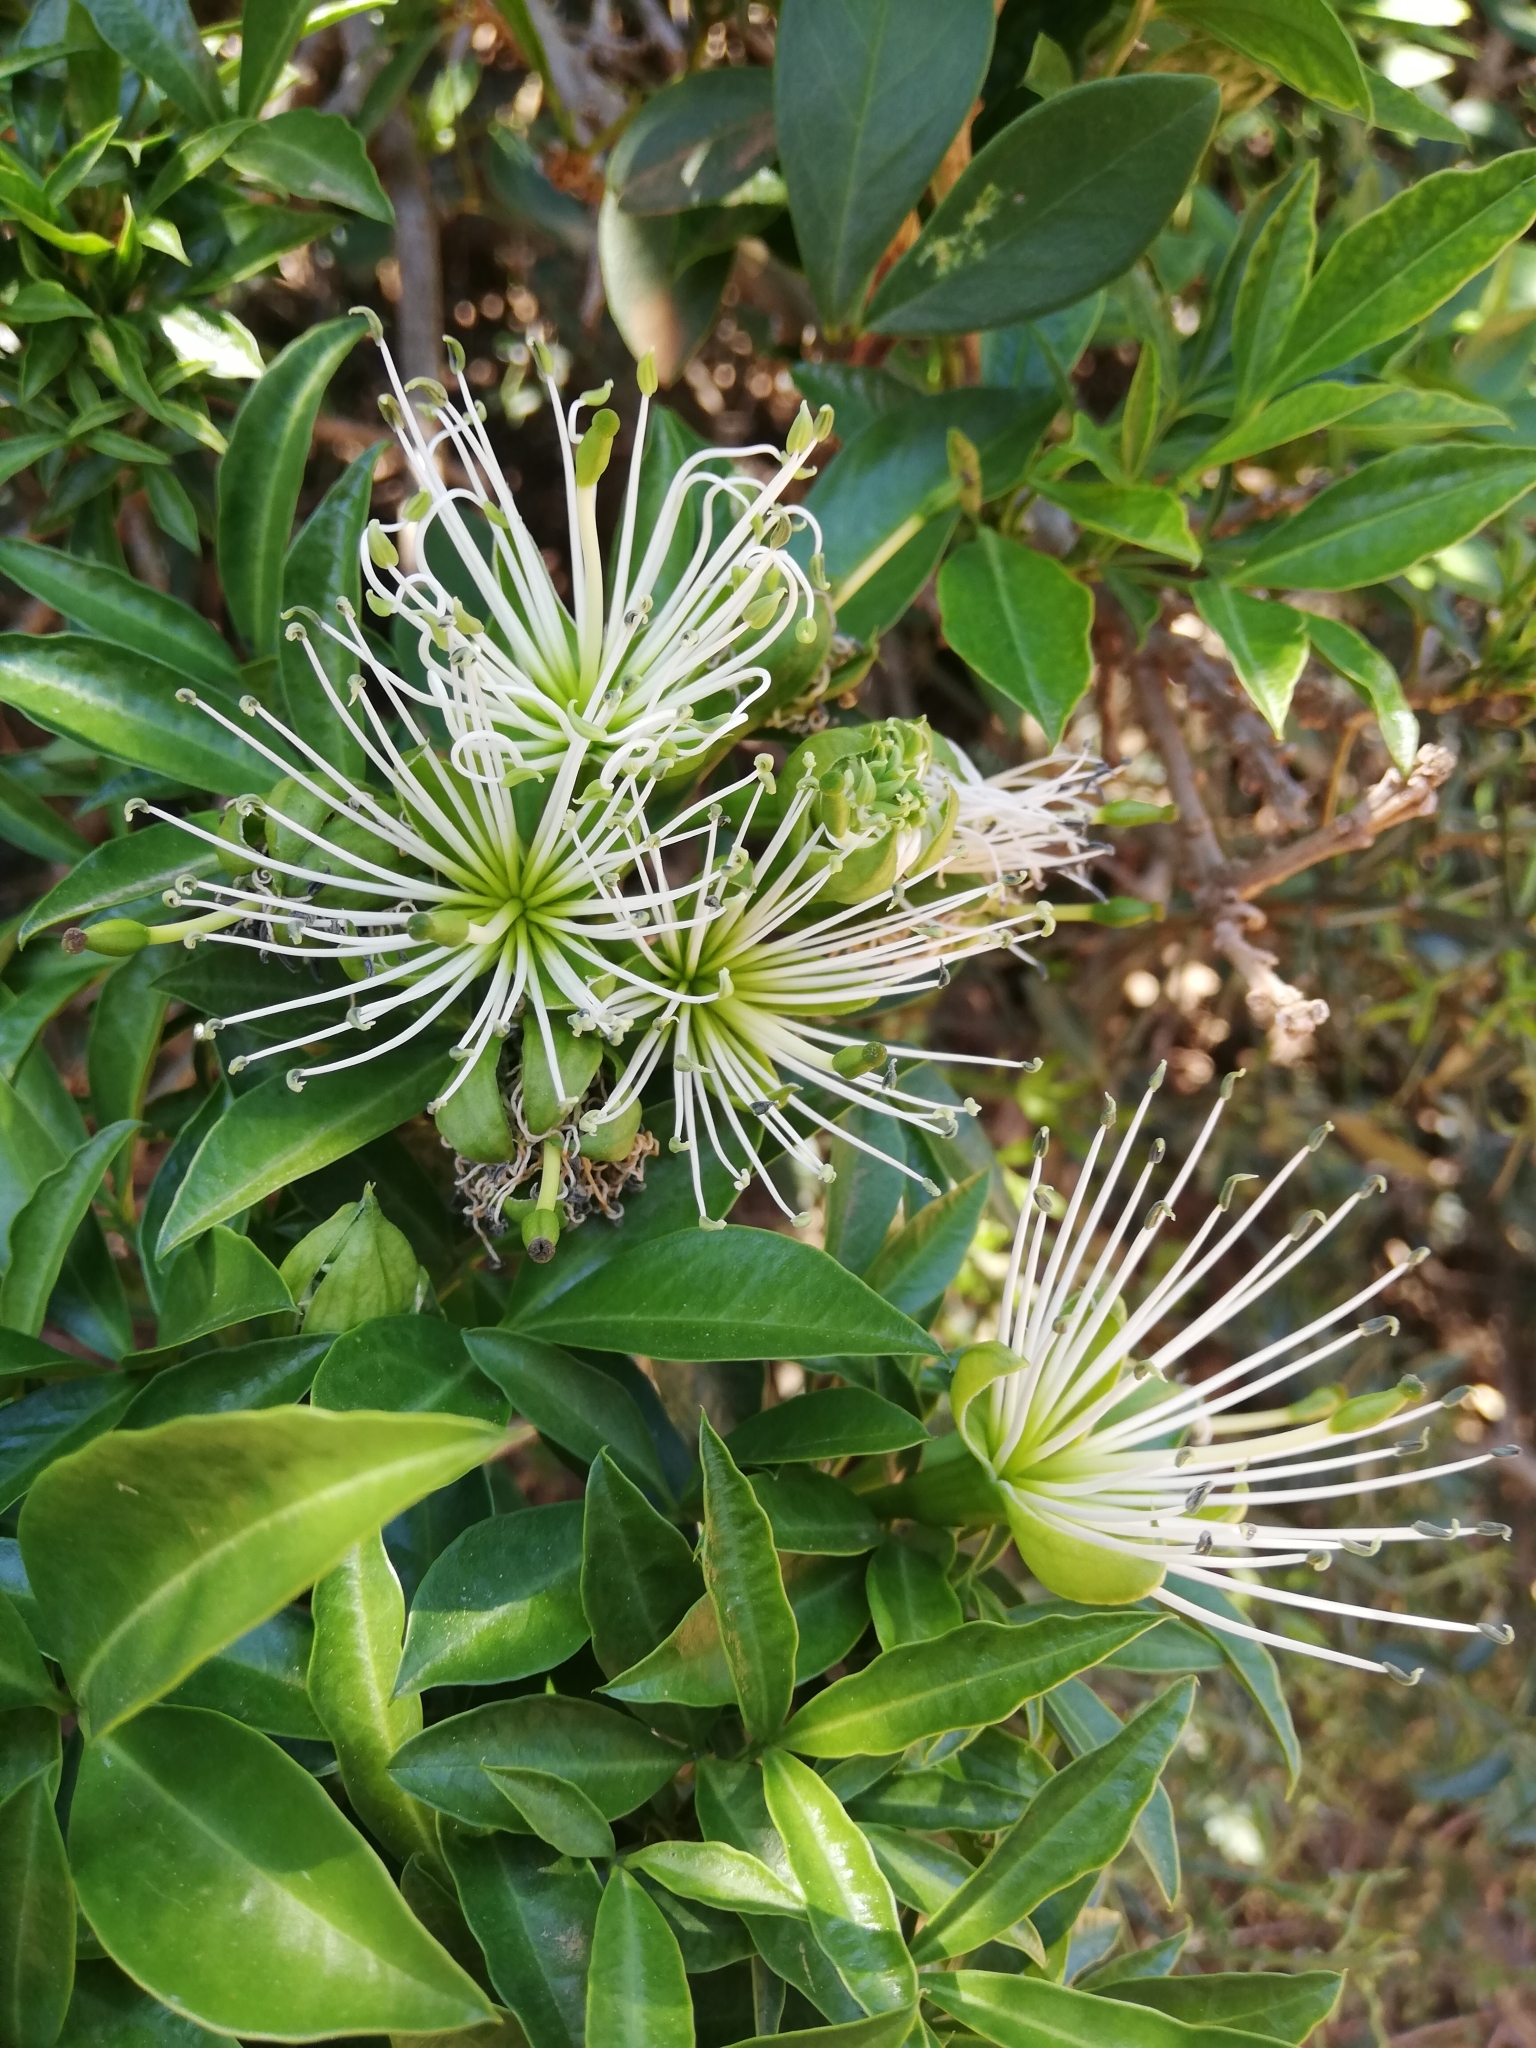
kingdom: Plantae
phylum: Tracheophyta
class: Magnoliopsida
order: Brassicales
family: Capparaceae
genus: Maerua
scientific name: Maerua cafra
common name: Bush maerua
